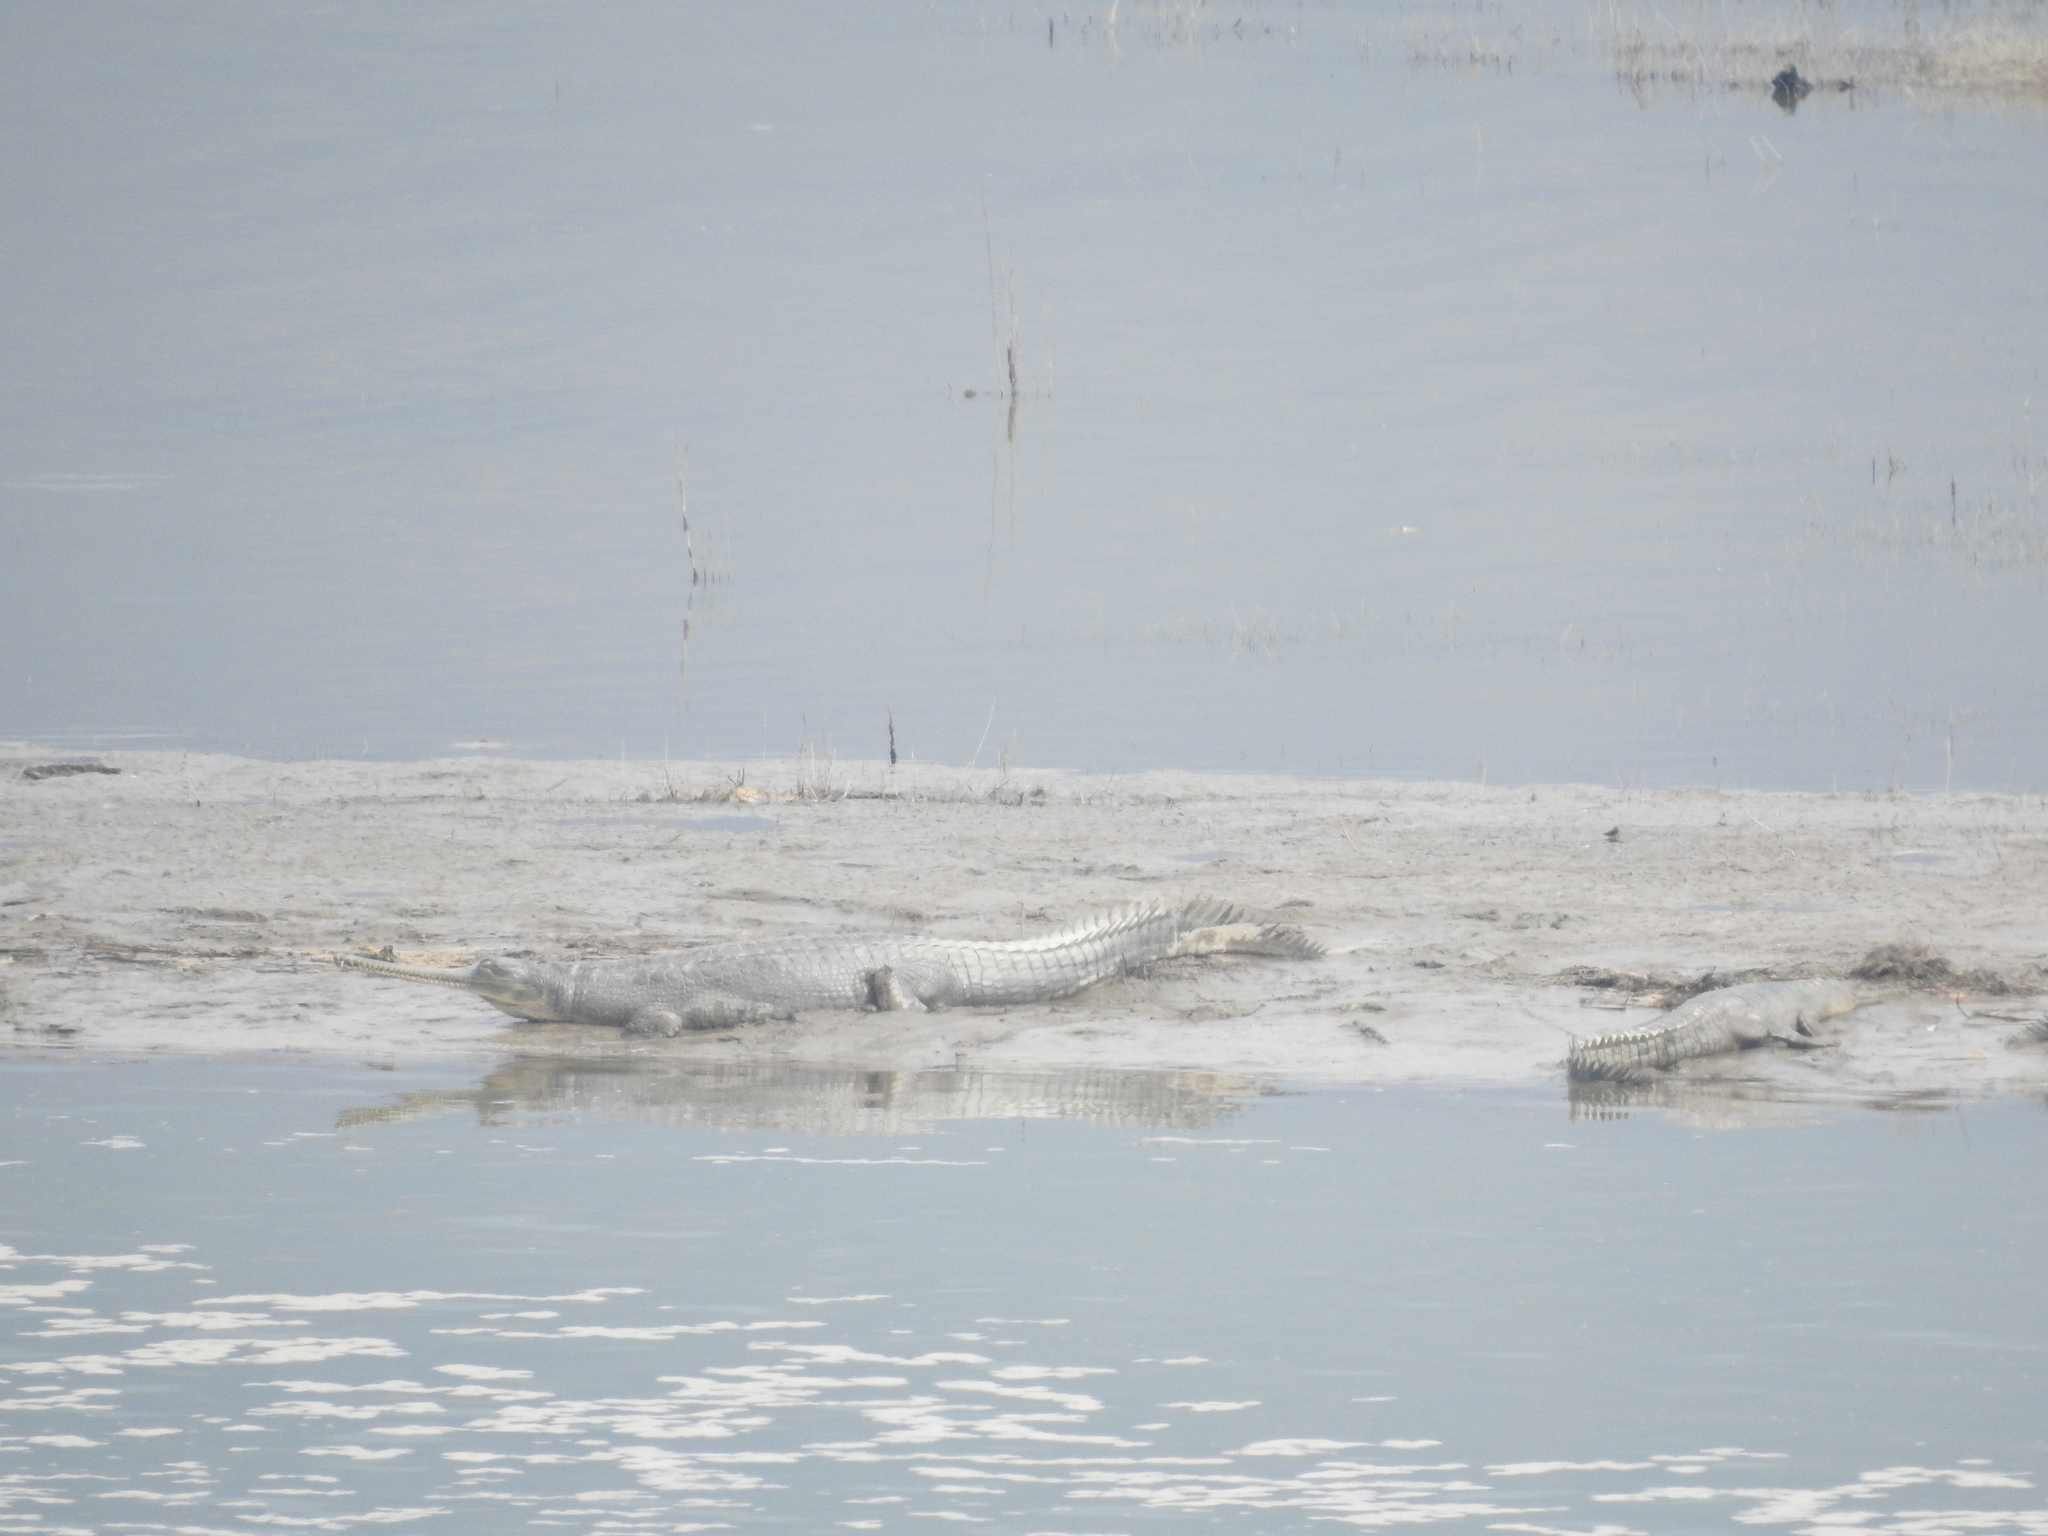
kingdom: Animalia
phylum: Chordata
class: Crocodylia
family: Gavialidae
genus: Gavialis
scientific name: Gavialis gangeticus
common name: Gharial
